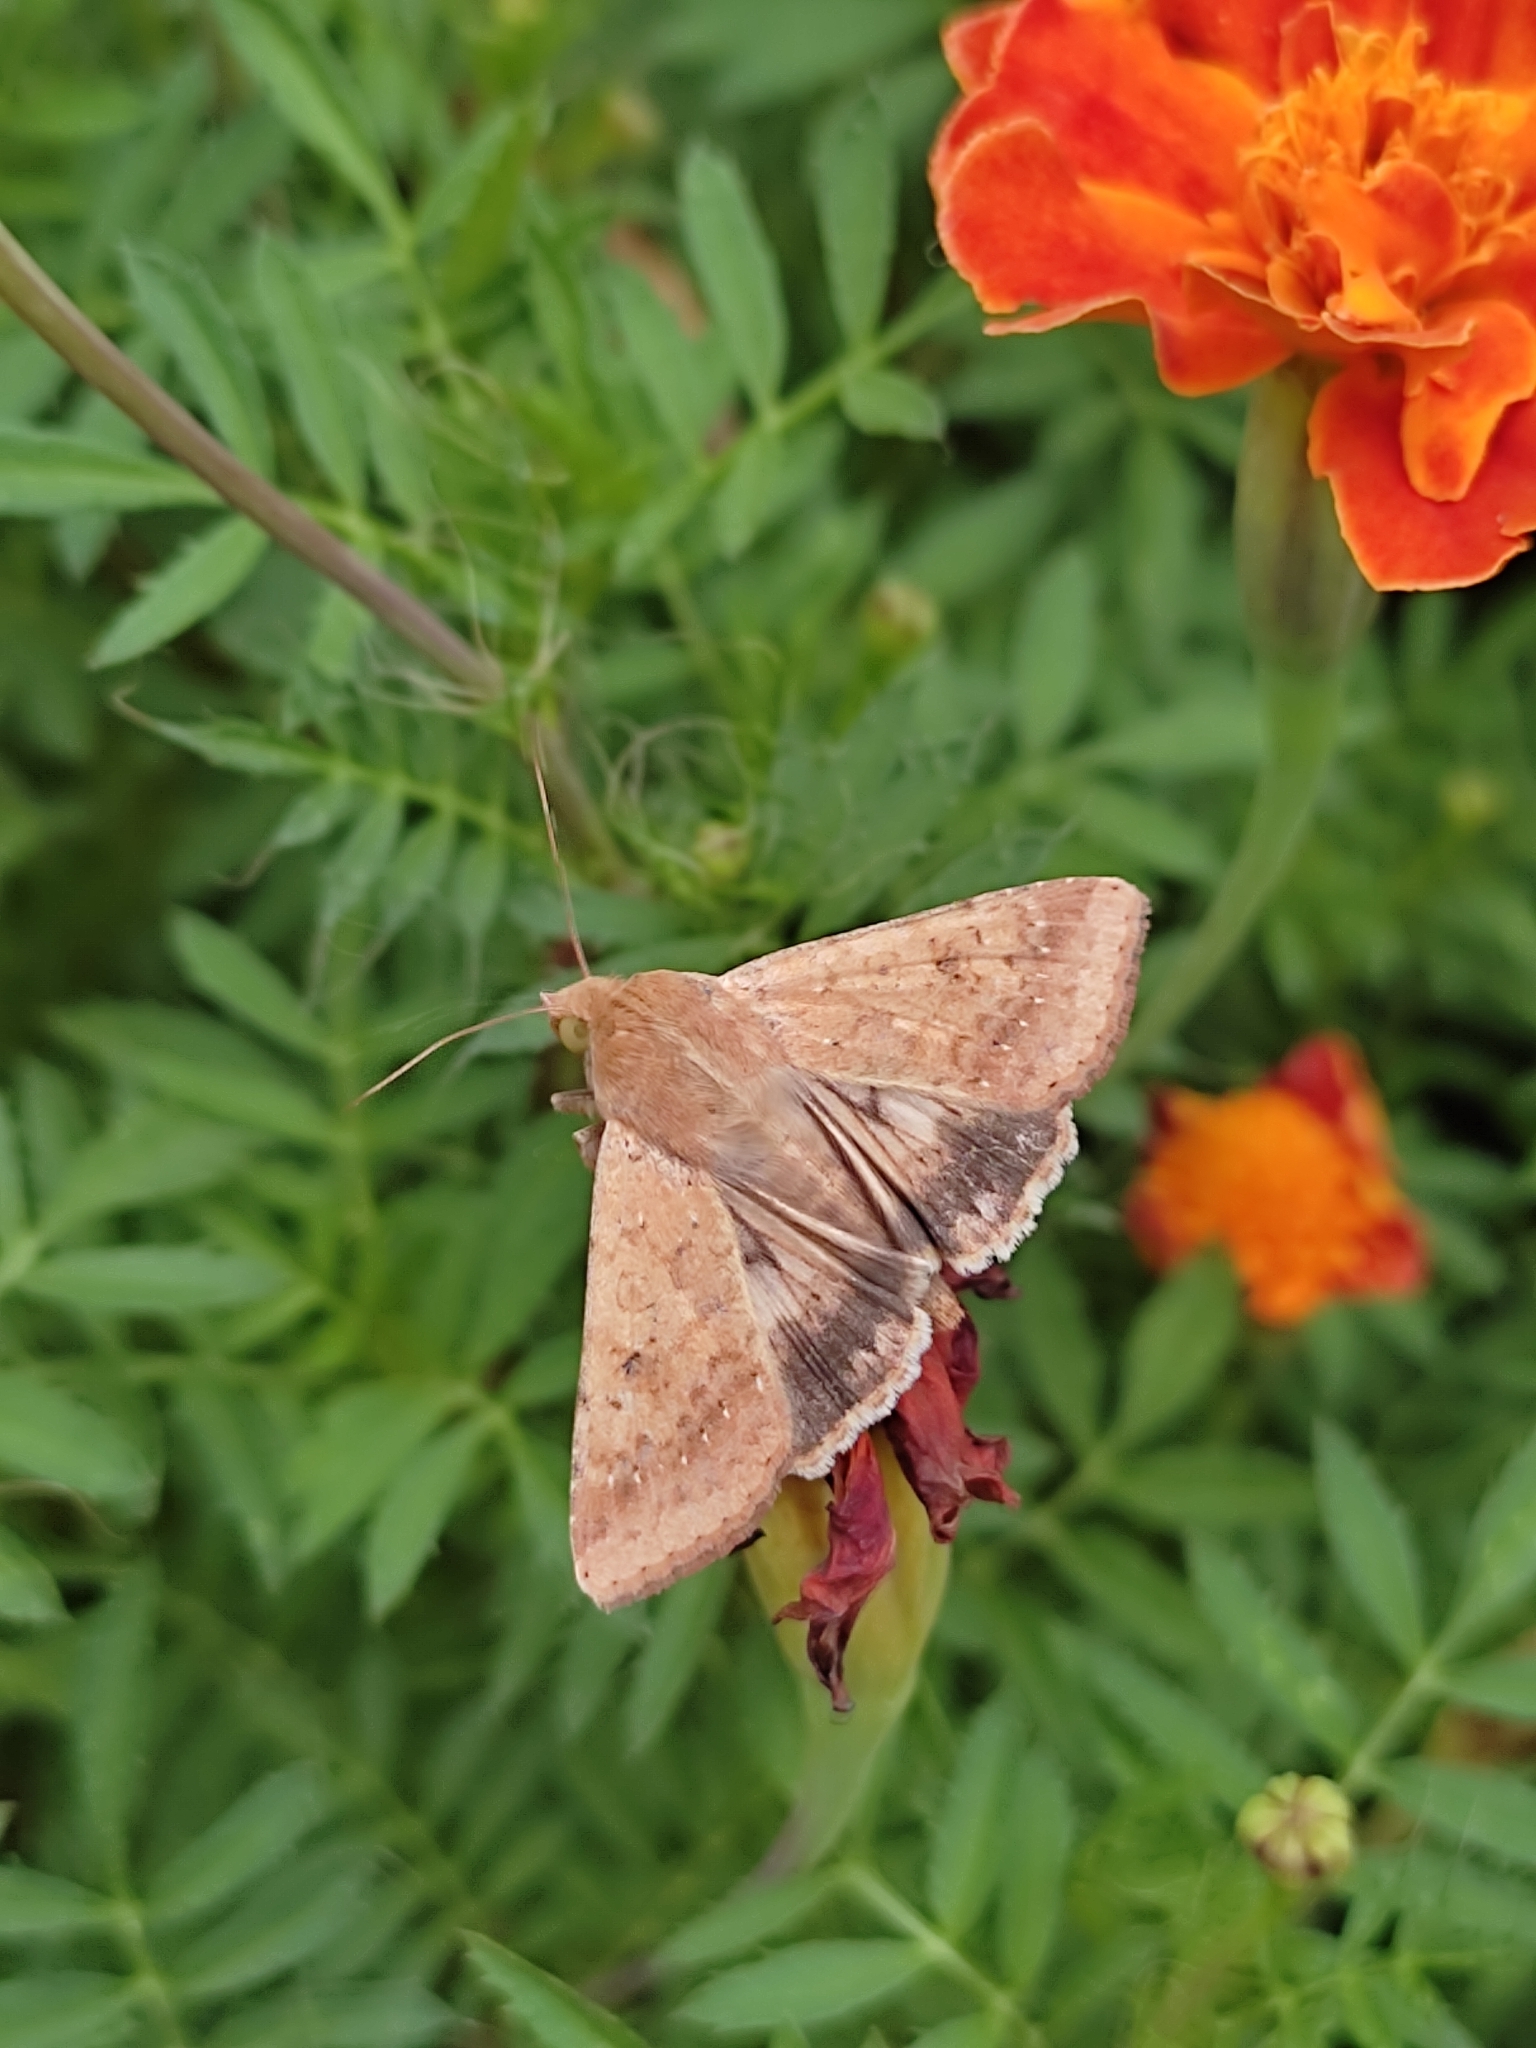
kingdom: Animalia
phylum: Arthropoda
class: Insecta
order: Lepidoptera
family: Noctuidae
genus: Helicoverpa
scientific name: Helicoverpa armigera
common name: Cotton bollworm
